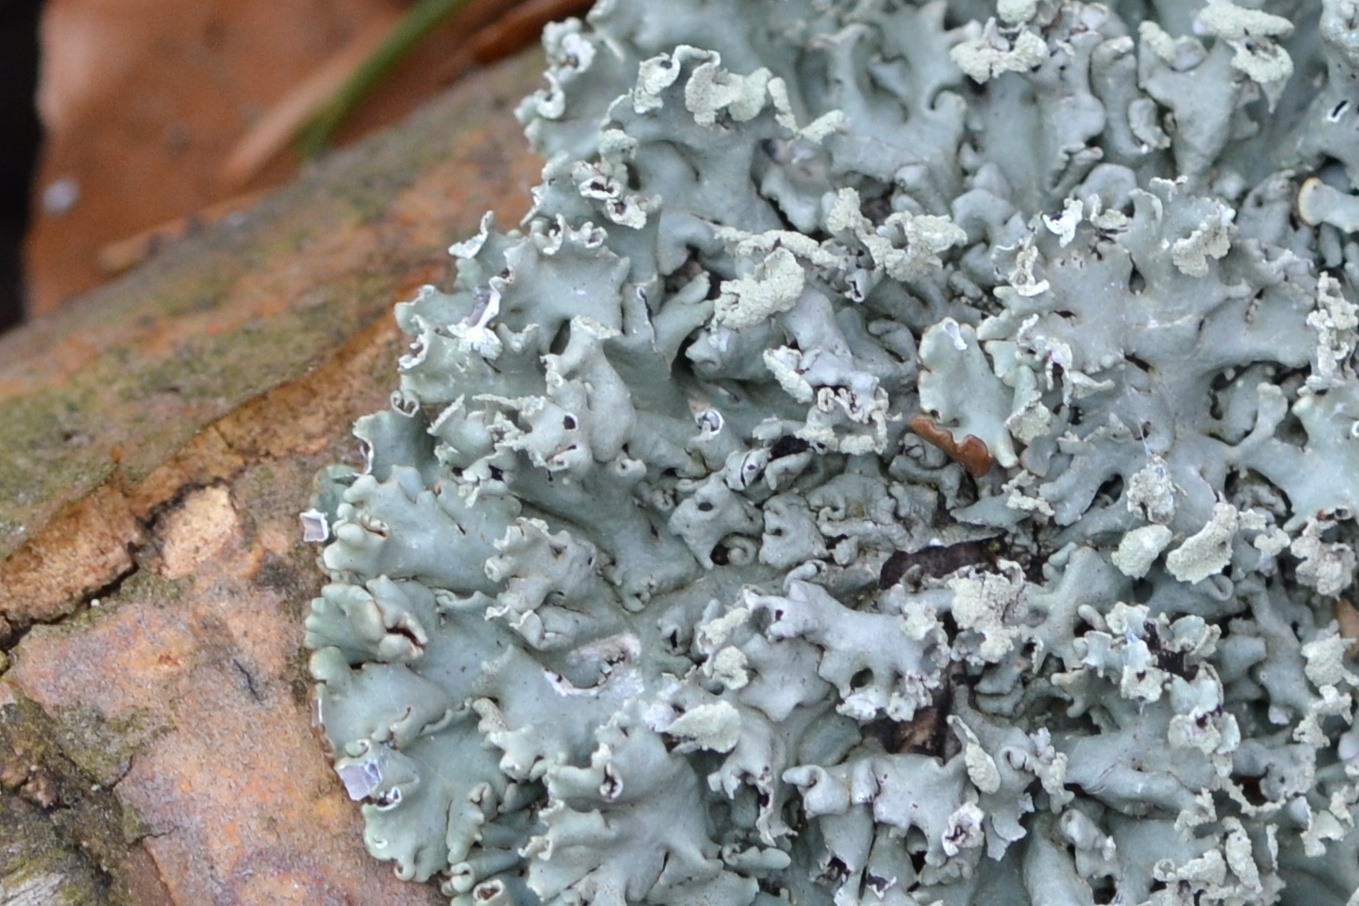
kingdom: Fungi
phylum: Ascomycota
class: Lecanoromycetes
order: Lecanorales
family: Parmeliaceae
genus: Hypogymnia
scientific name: Hypogymnia physodes
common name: Dark crottle
